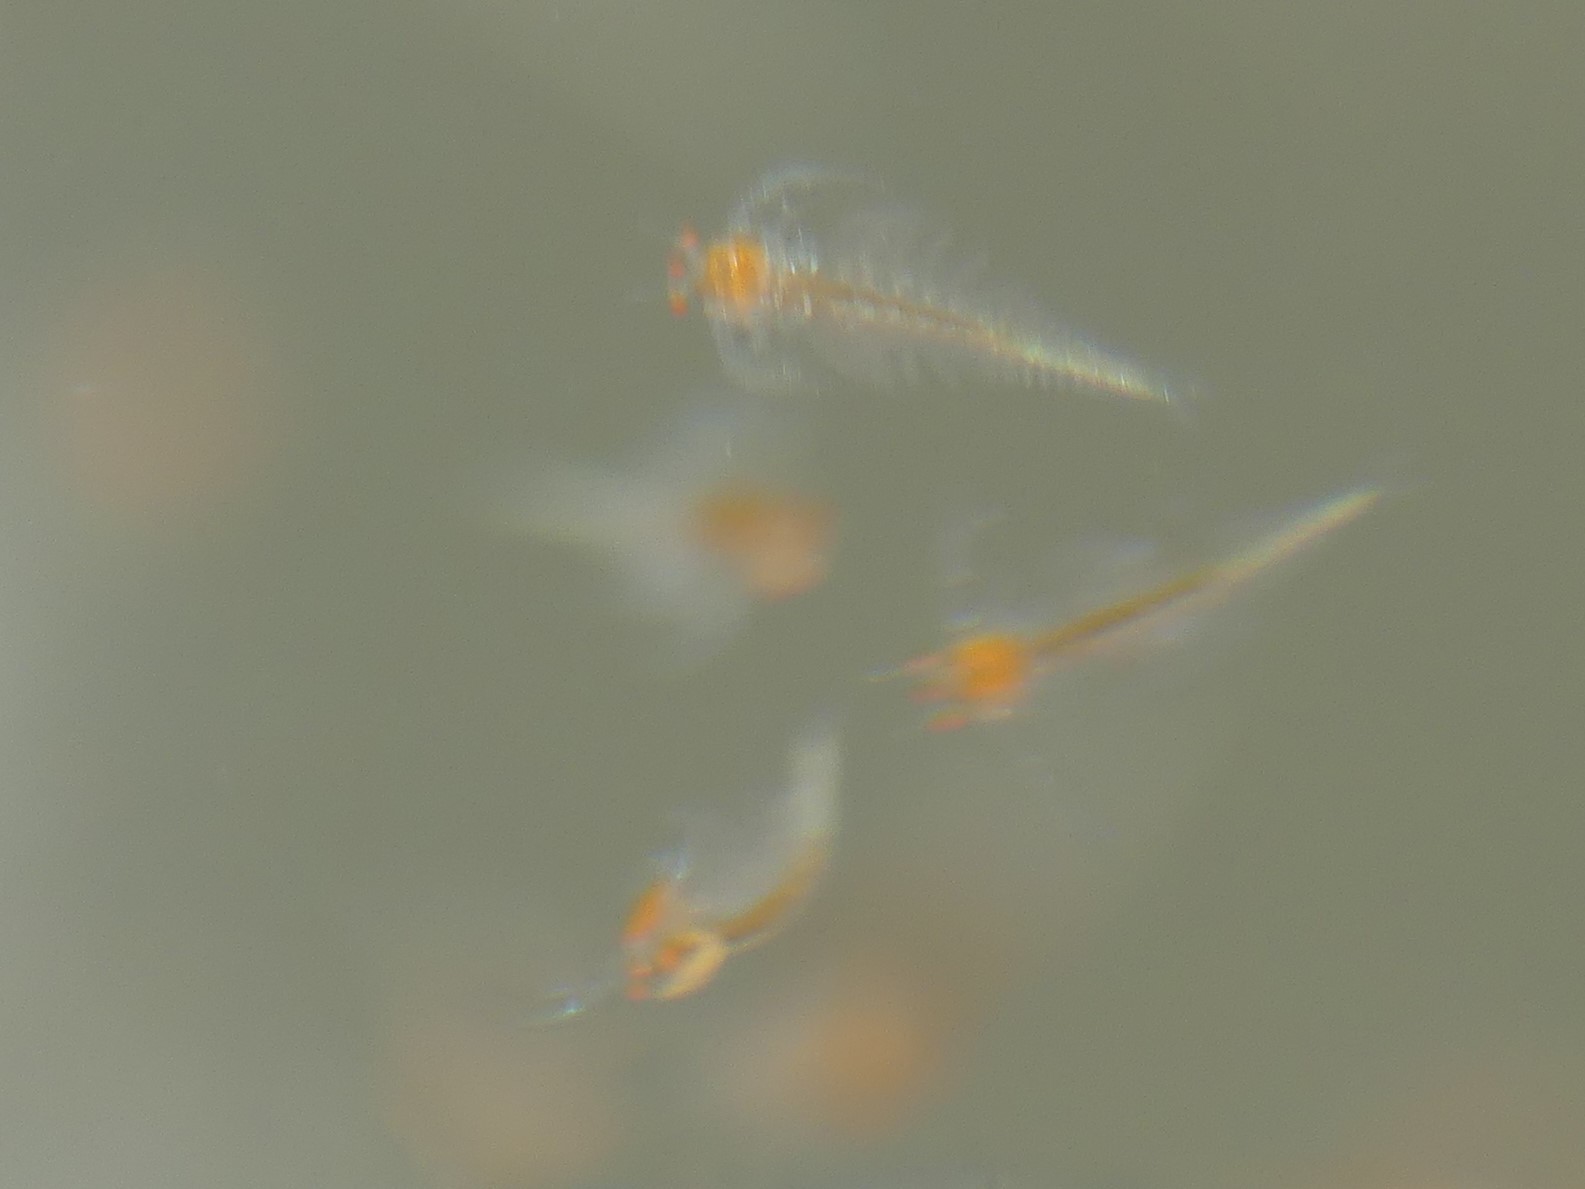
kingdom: Animalia
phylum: Arthropoda
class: Branchiopoda
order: Anostraca
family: Tanymastigidae
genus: Tanymastix
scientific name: Tanymastix stagnalis
